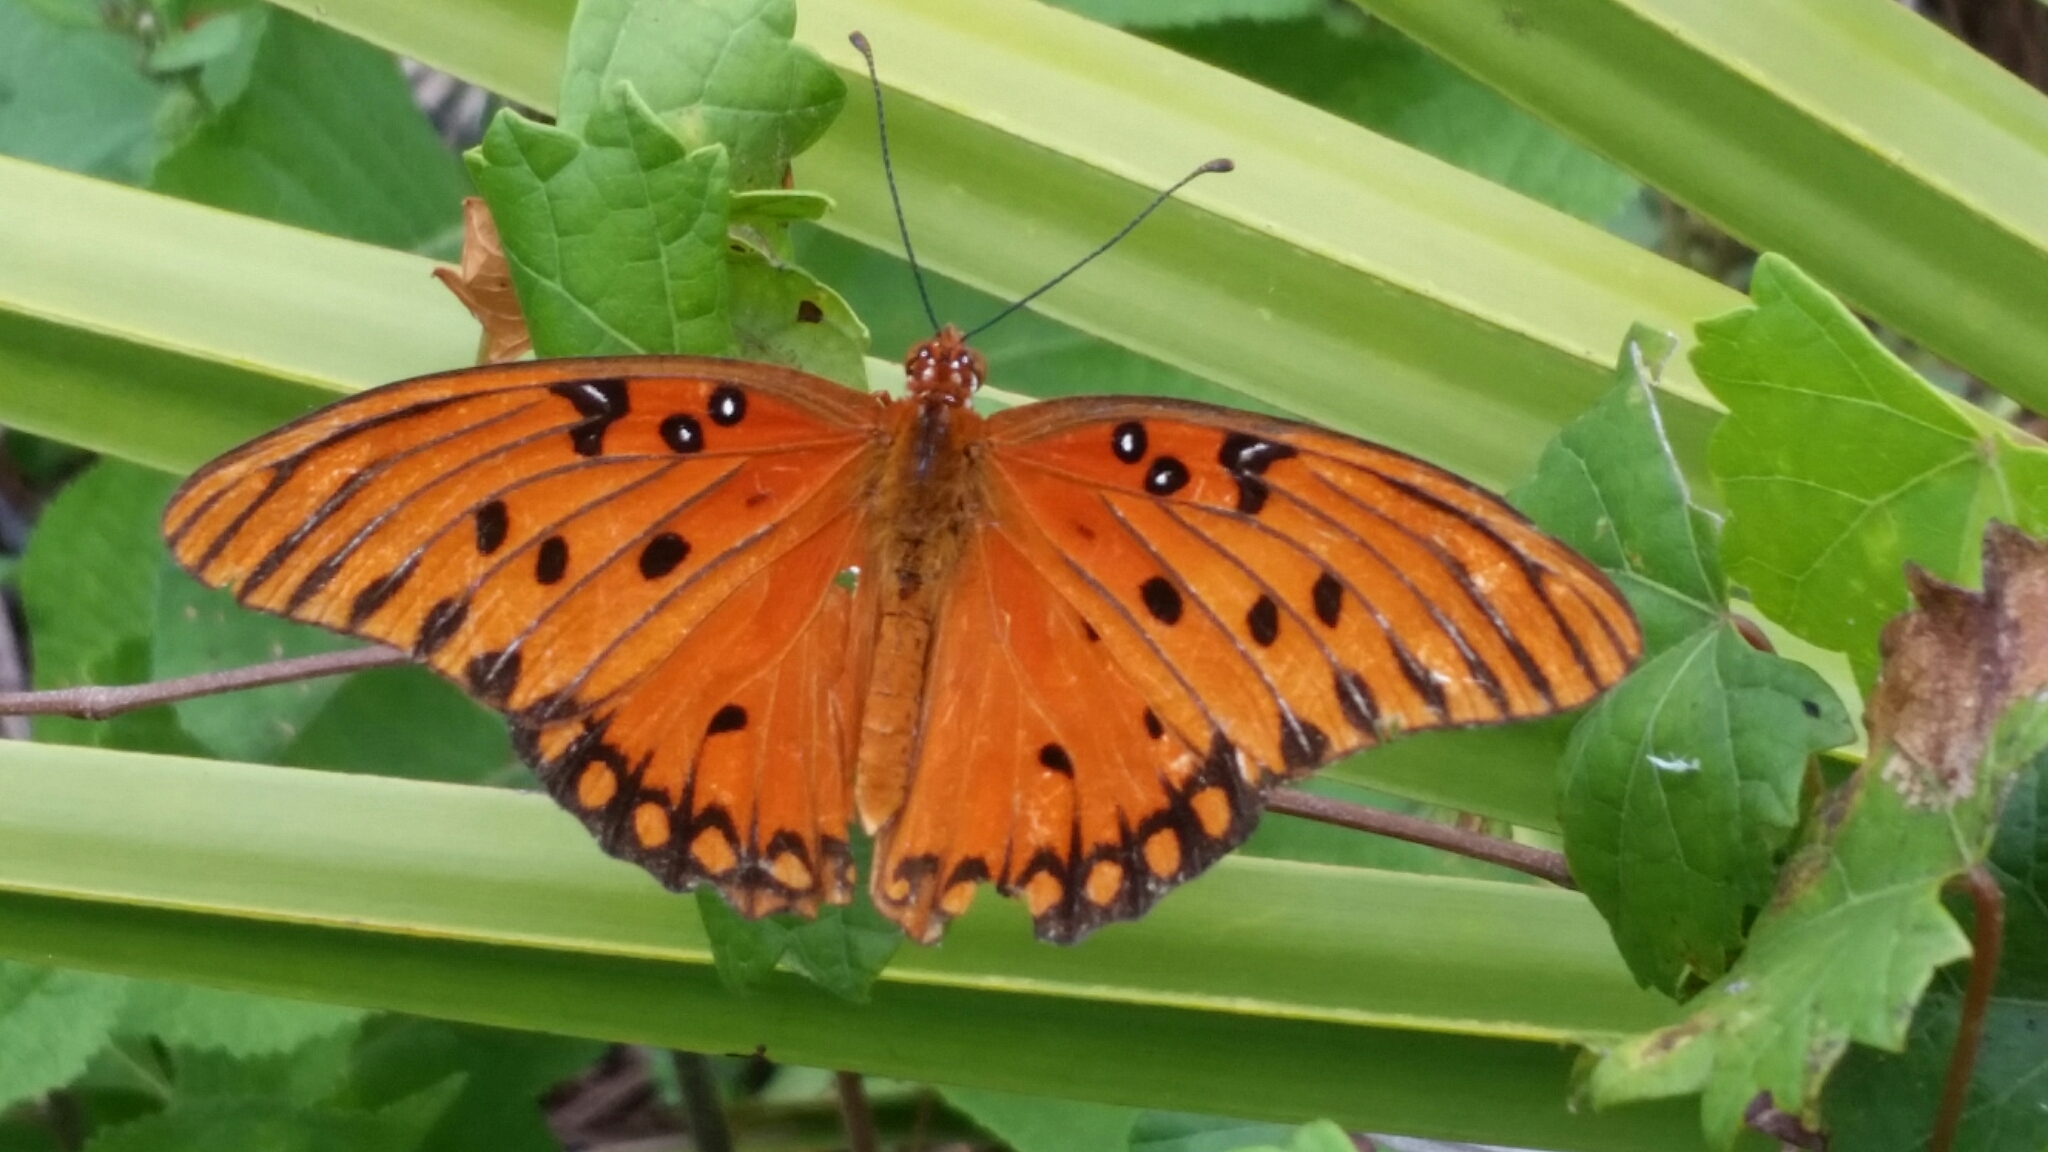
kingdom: Animalia
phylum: Arthropoda
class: Insecta
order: Lepidoptera
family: Nymphalidae
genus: Dione
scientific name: Dione vanillae
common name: Gulf fritillary
